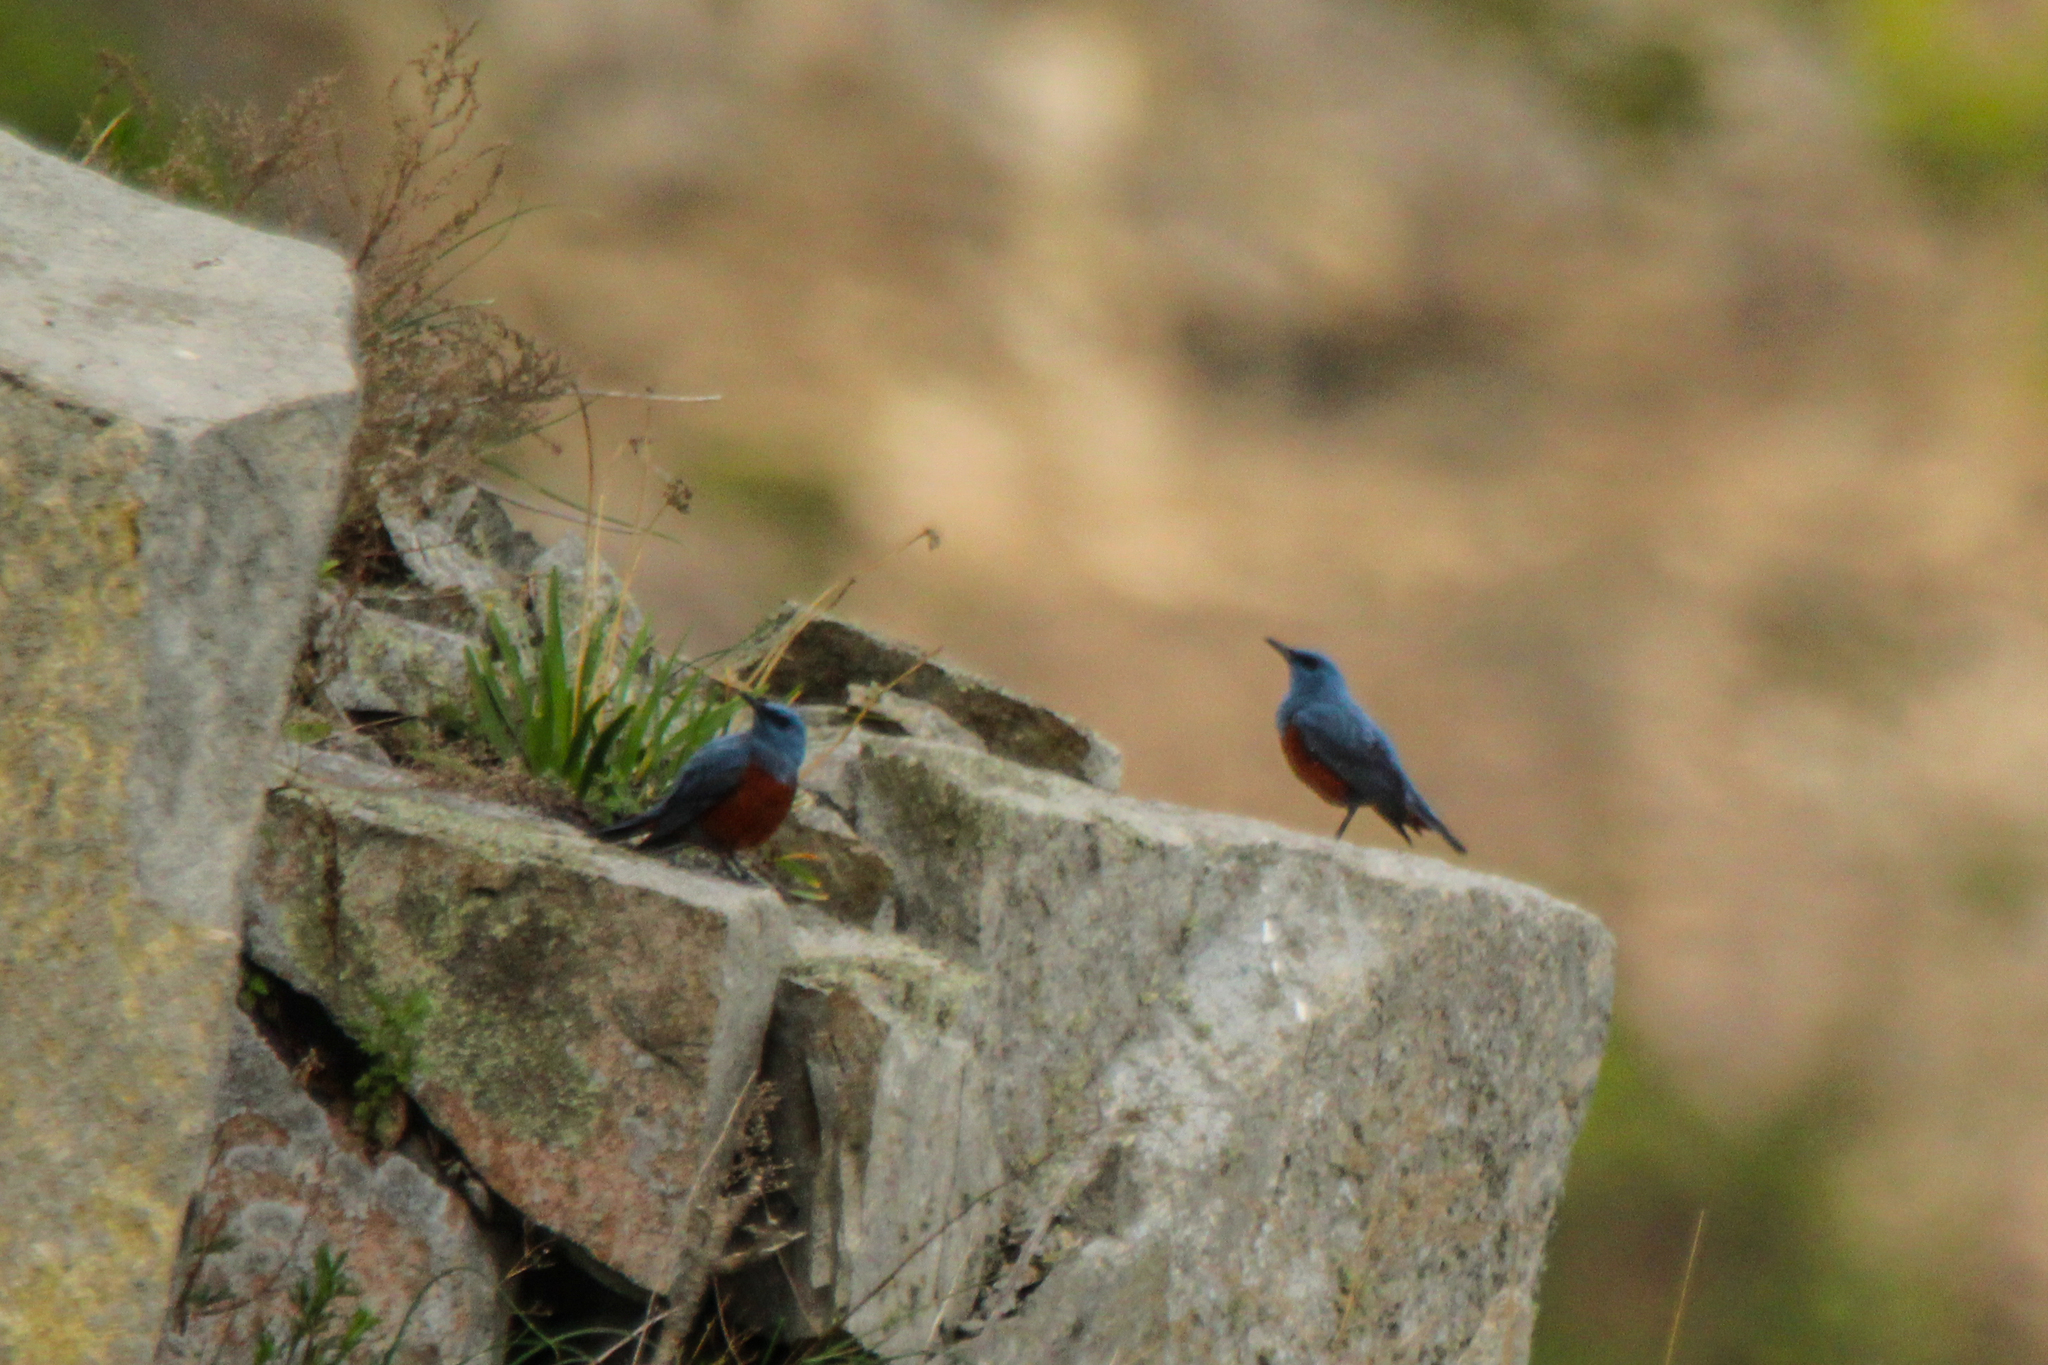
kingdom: Animalia
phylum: Chordata
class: Aves
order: Passeriformes
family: Muscicapidae
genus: Monticola
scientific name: Monticola solitarius
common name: Blue rock thrush
